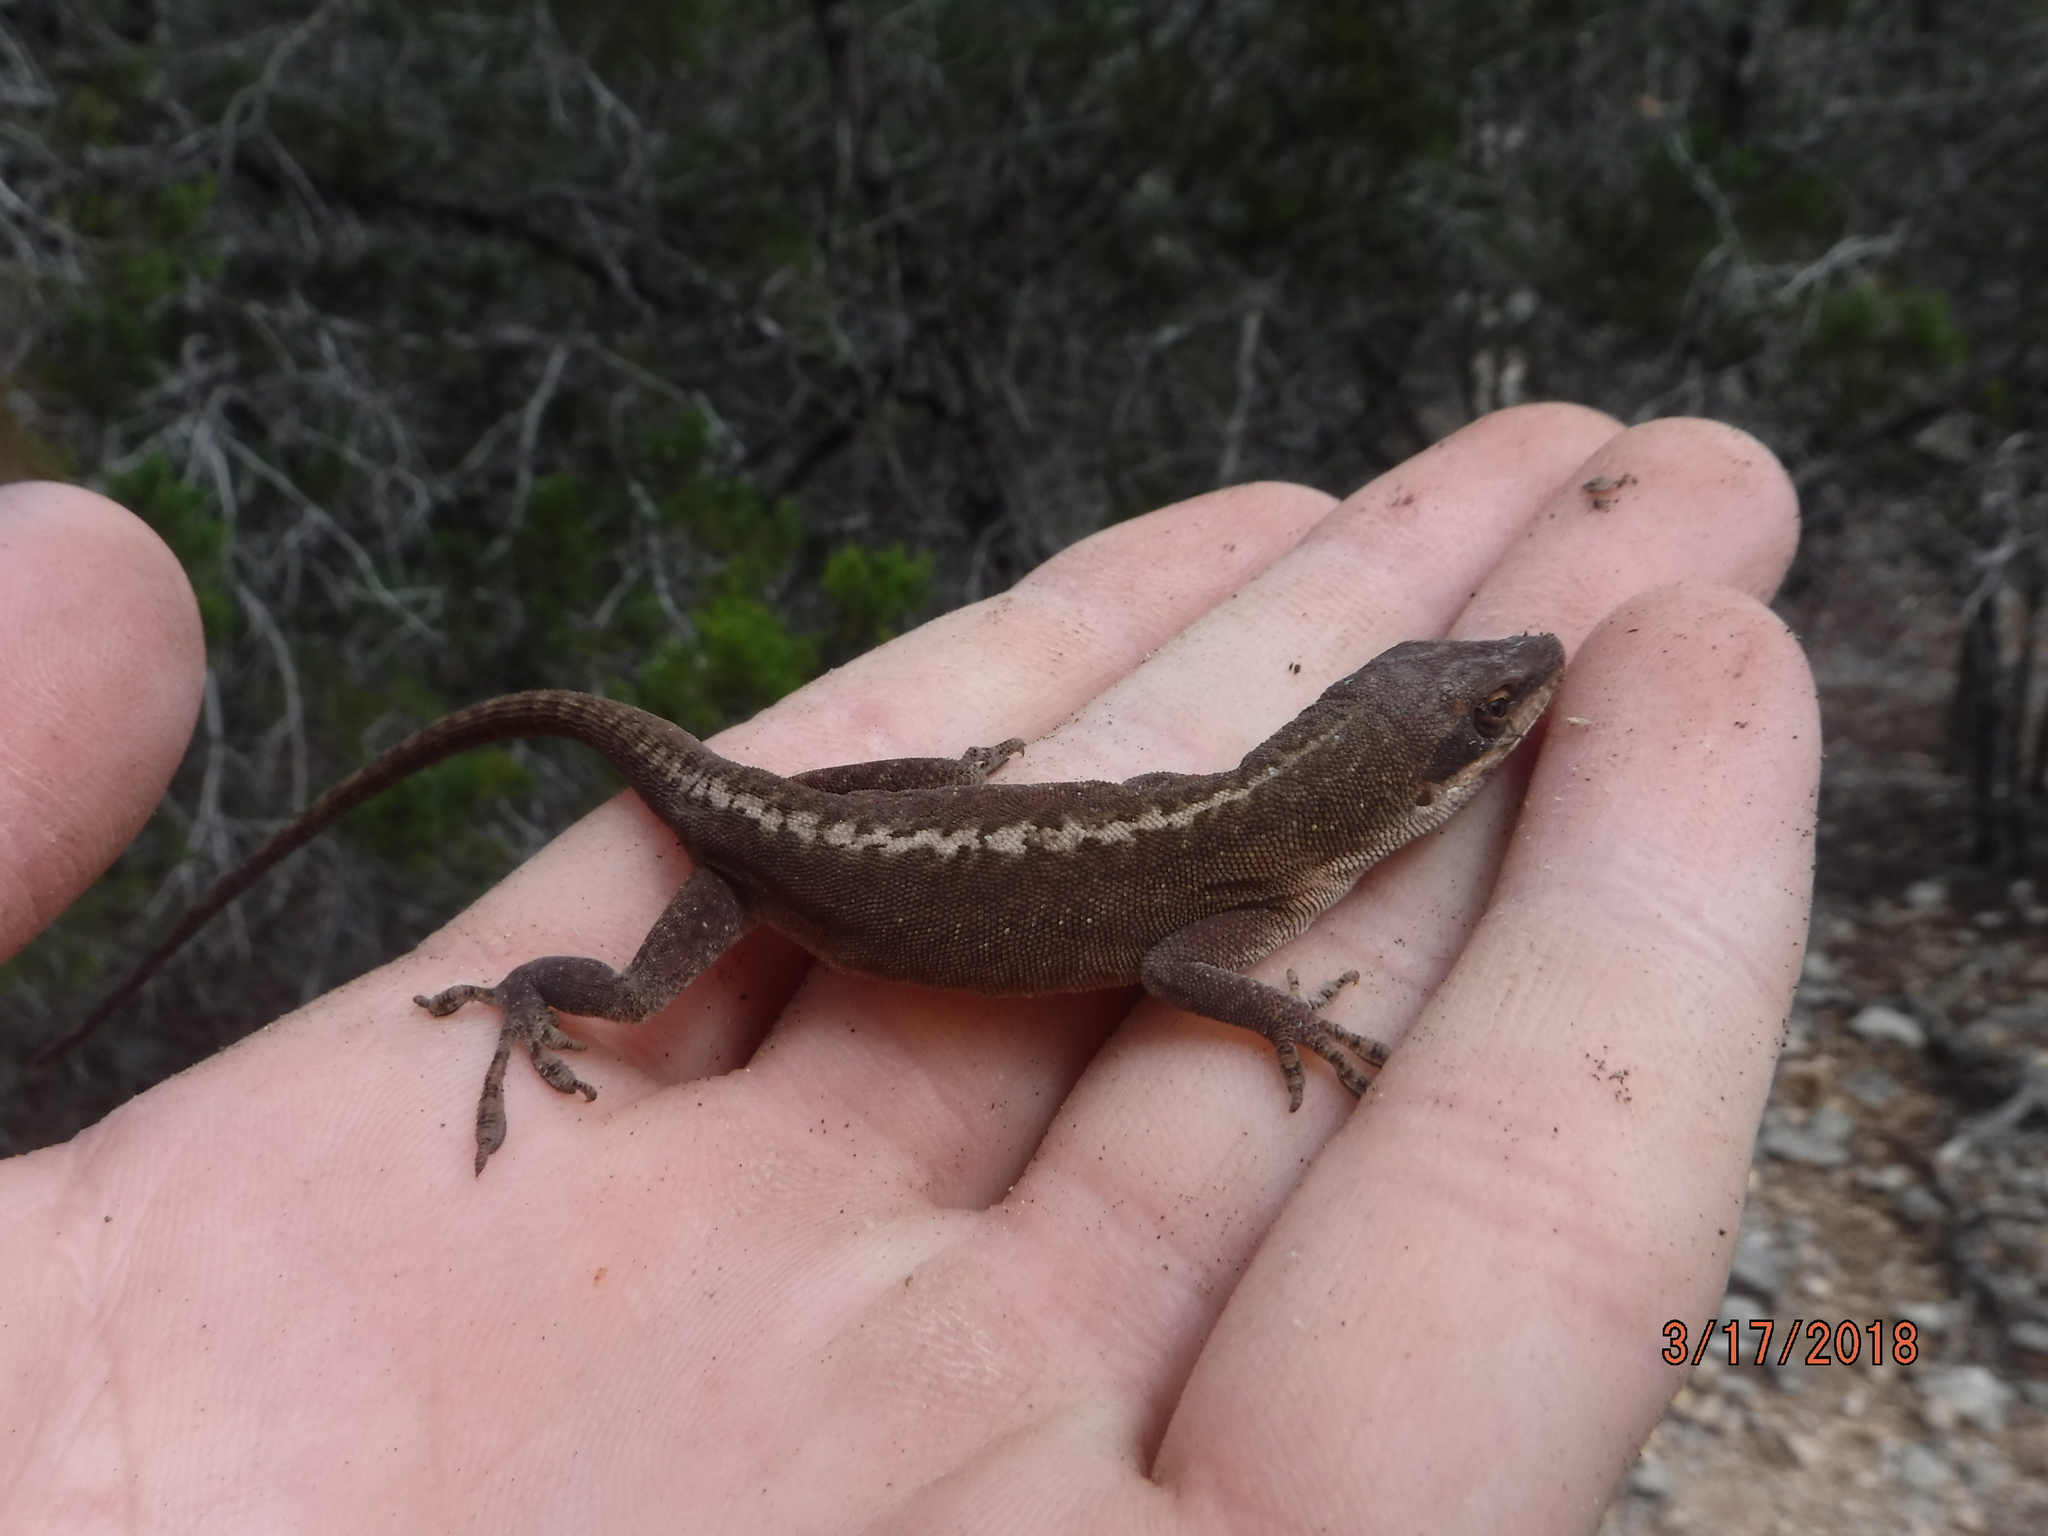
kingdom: Animalia
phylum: Chordata
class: Squamata
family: Dactyloidae
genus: Anolis
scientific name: Anolis carolinensis
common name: Green anole
